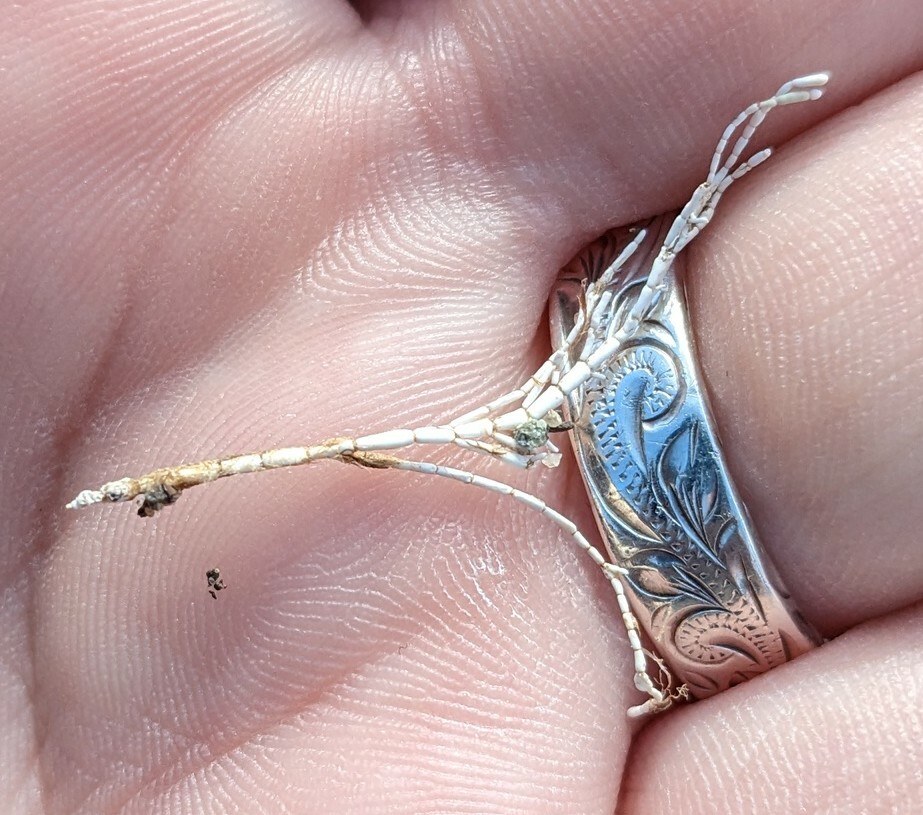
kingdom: Plantae
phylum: Rhodophyta
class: Florideophyceae
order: Corallinales
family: Corallinaceae
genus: Corallina
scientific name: Corallina officinalis
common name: Coral weed
